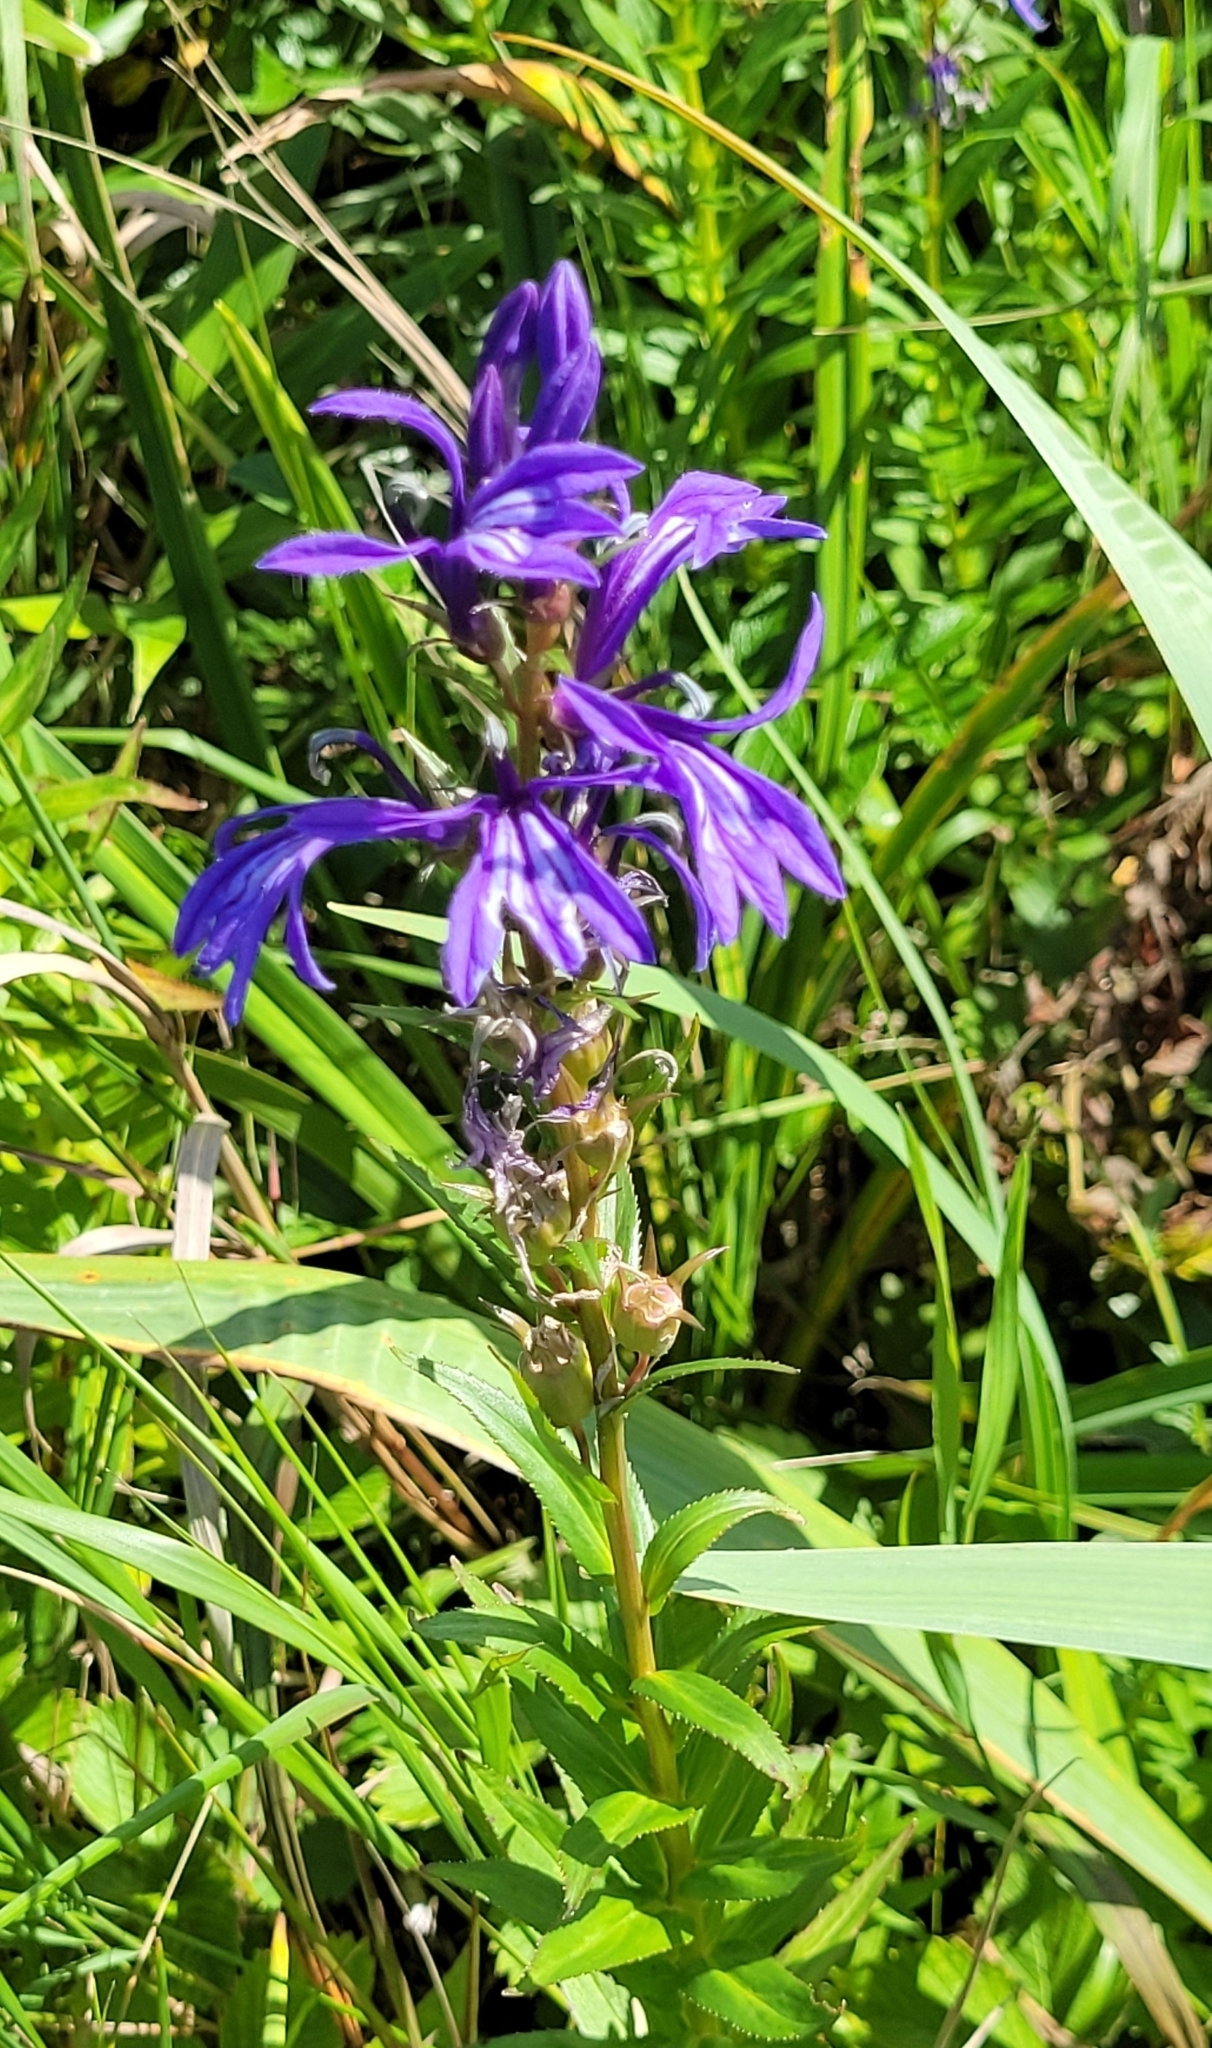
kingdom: Plantae
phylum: Tracheophyta
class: Magnoliopsida
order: Asterales
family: Campanulaceae
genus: Lobelia
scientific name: Lobelia sessilifolia
